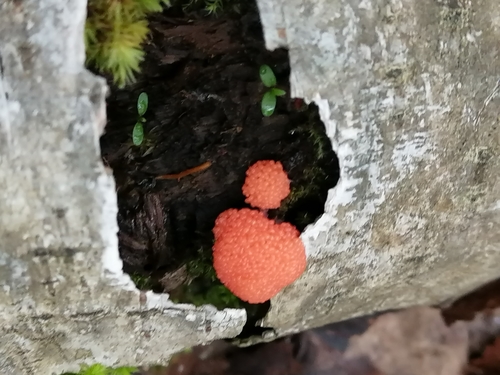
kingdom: Protozoa
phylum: Mycetozoa
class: Myxomycetes
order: Cribrariales
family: Tubiferaceae
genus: Tubifera
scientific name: Tubifera
